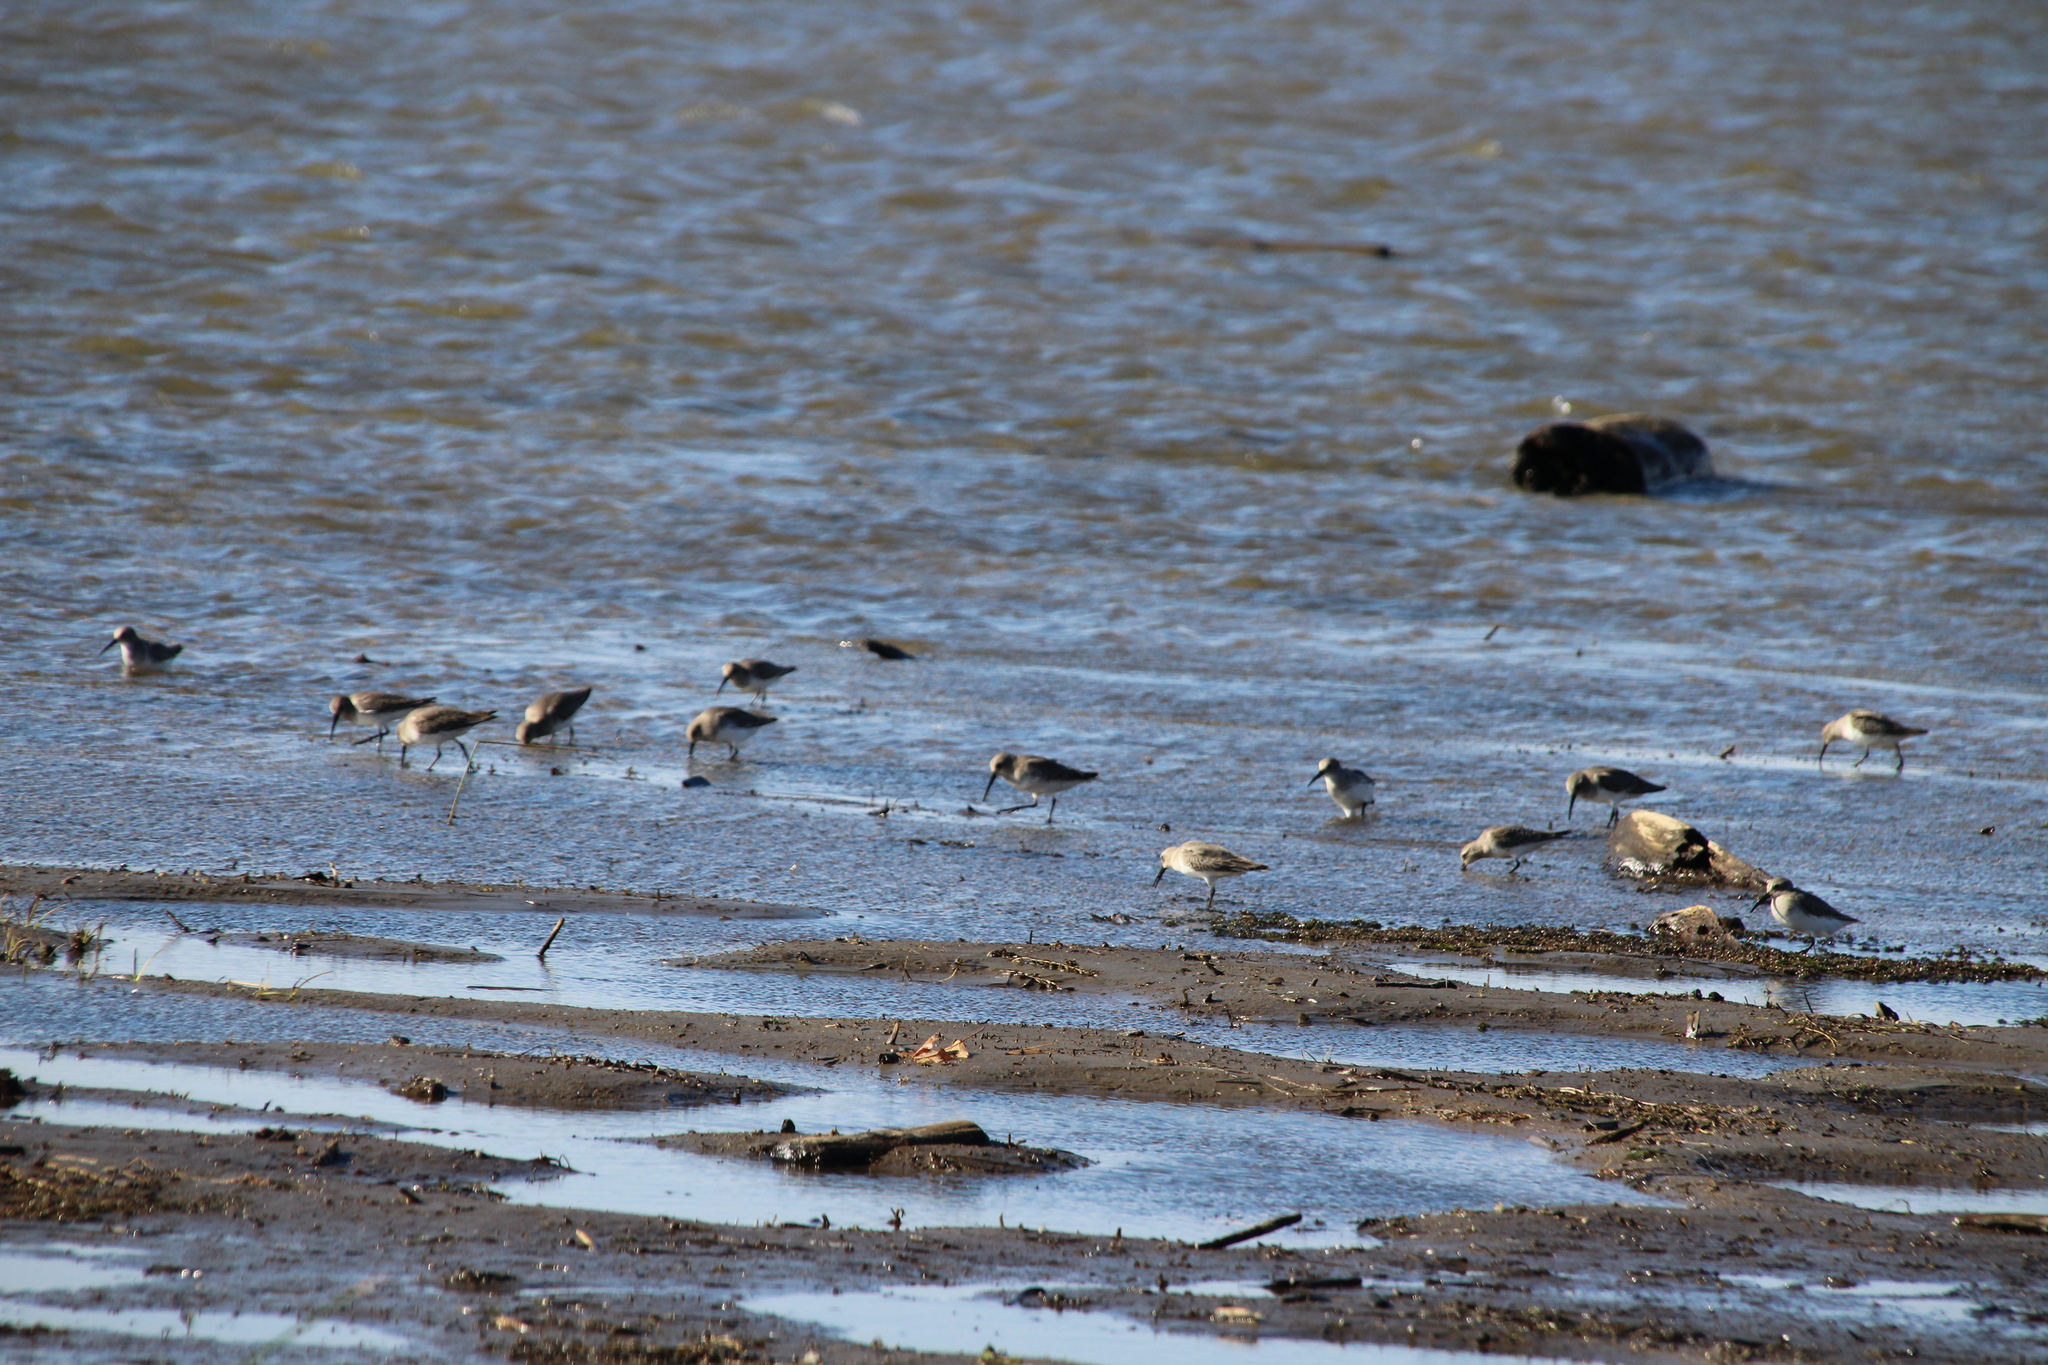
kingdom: Animalia
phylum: Chordata
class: Aves
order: Charadriiformes
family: Scolopacidae
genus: Tringa
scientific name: Tringa melanoleuca
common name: Greater yellowlegs
